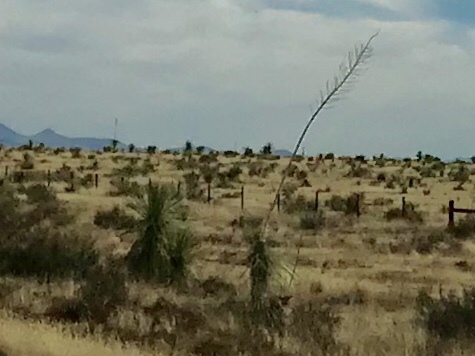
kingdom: Plantae
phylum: Tracheophyta
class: Liliopsida
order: Asparagales
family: Asparagaceae
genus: Yucca
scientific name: Yucca elata
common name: Palmella
